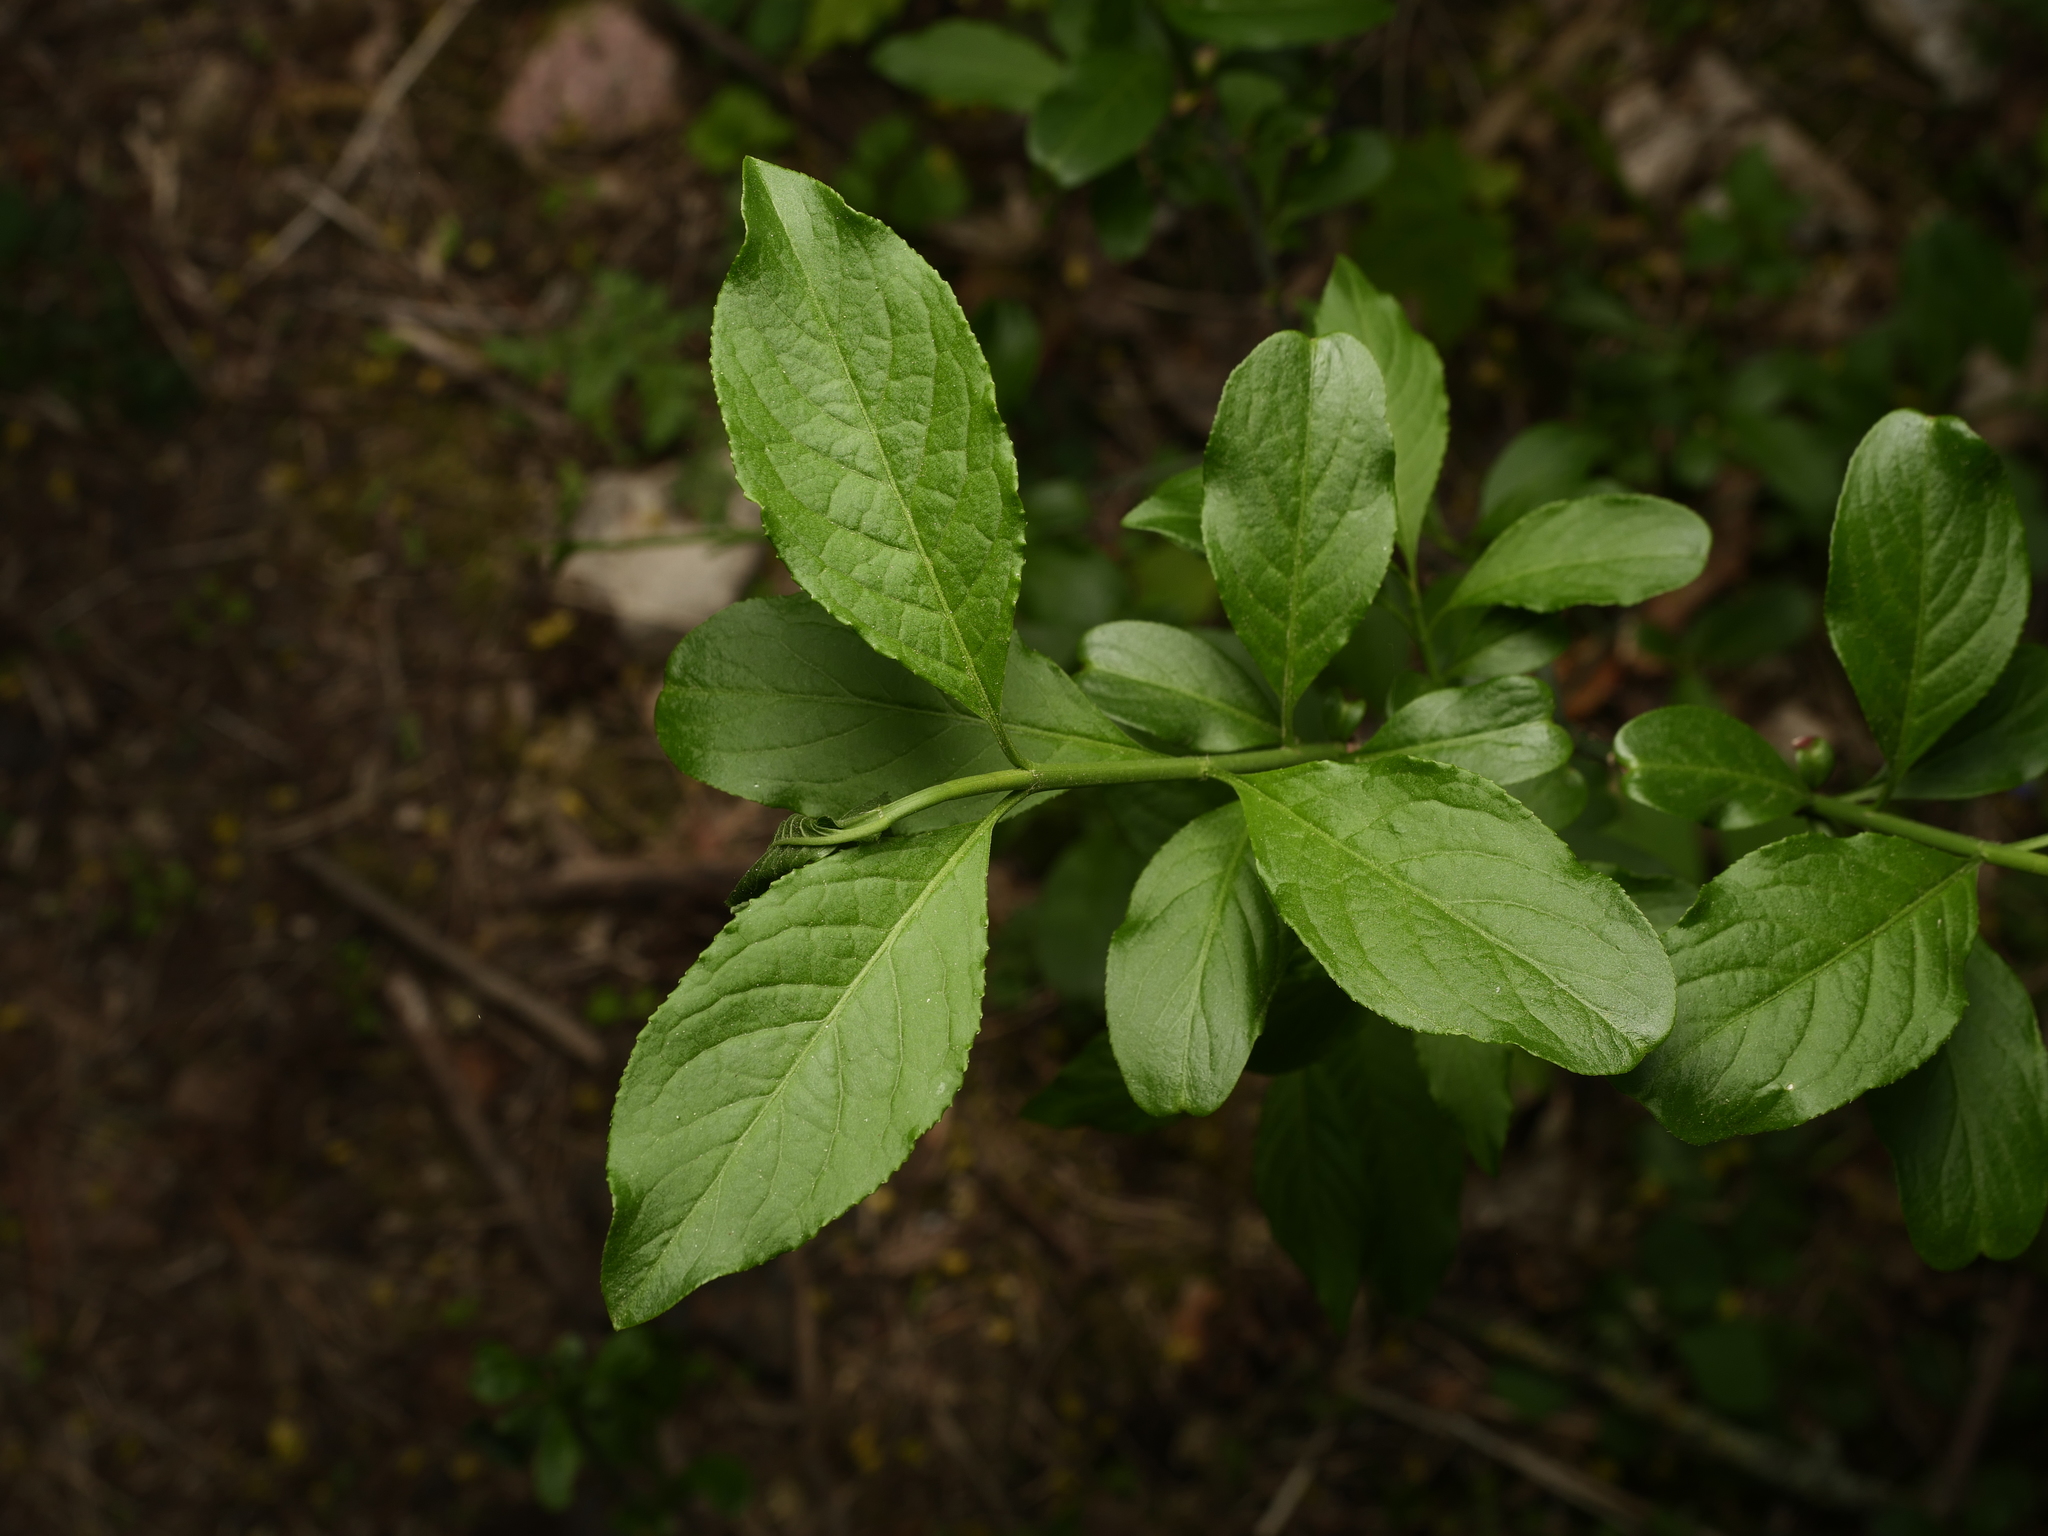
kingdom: Plantae
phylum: Tracheophyta
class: Magnoliopsida
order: Celastrales
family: Celastraceae
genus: Euonymus
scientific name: Euonymus europaeus
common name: Spindle
